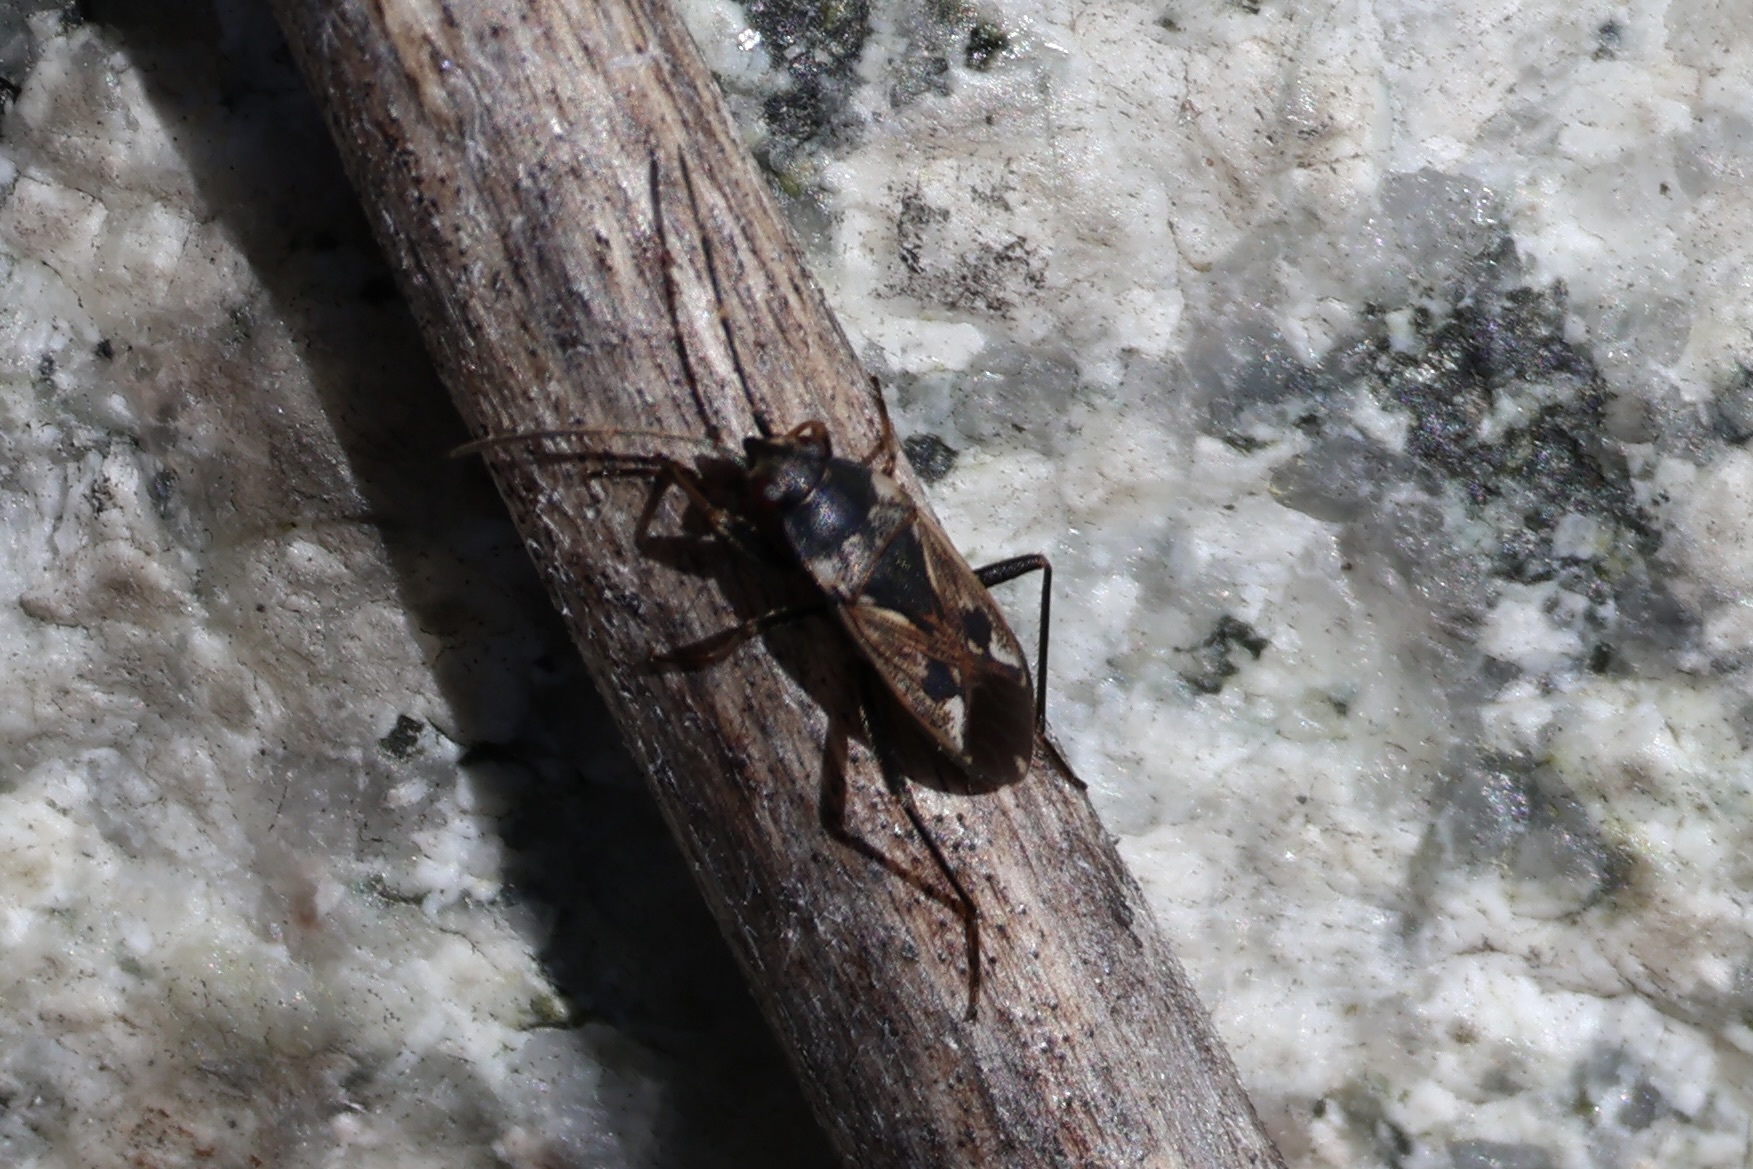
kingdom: Animalia
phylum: Arthropoda
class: Insecta
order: Hemiptera
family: Rhyparochromidae
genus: Rhyparochromus
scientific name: Rhyparochromus vulgaris
